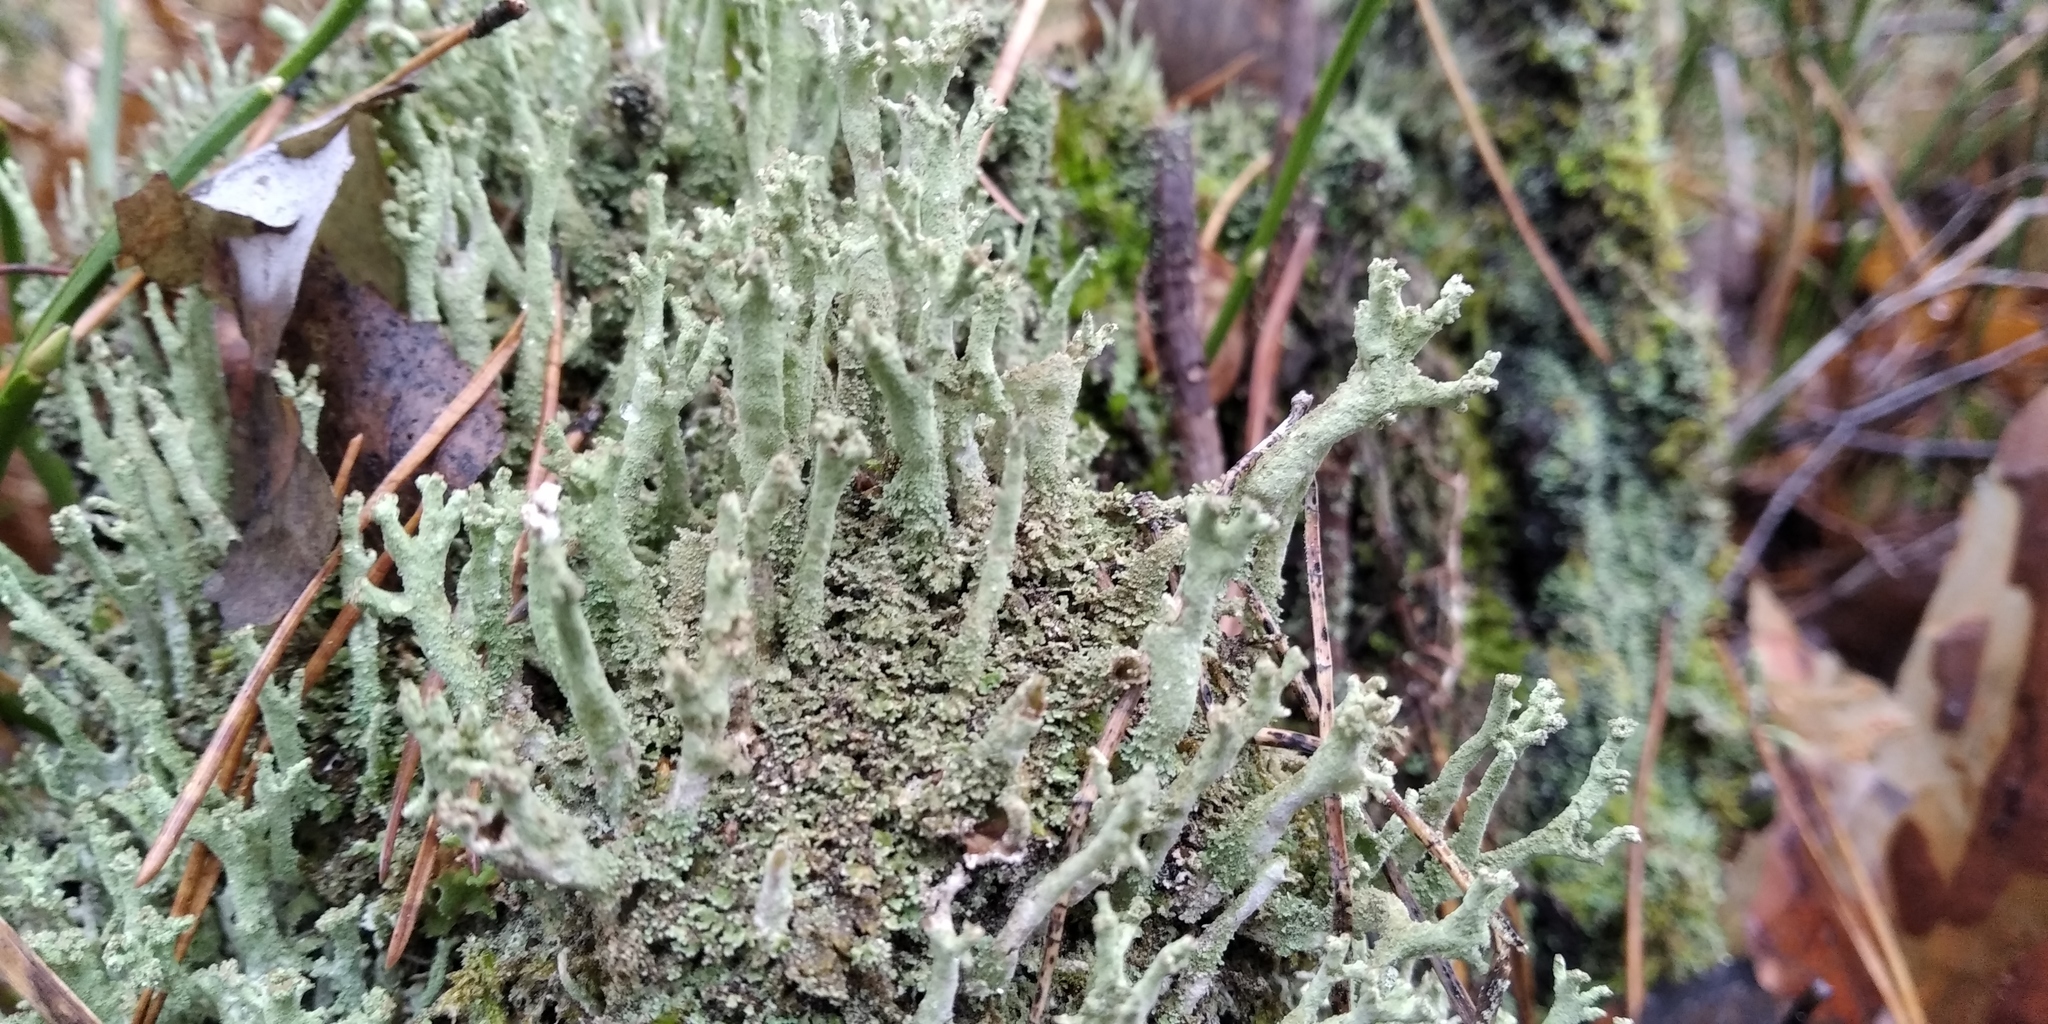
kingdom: Fungi
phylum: Ascomycota
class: Lecanoromycetes
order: Lecanorales
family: Cladoniaceae
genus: Cladonia
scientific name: Cladonia cenotea
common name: Powdered funnel lichen
